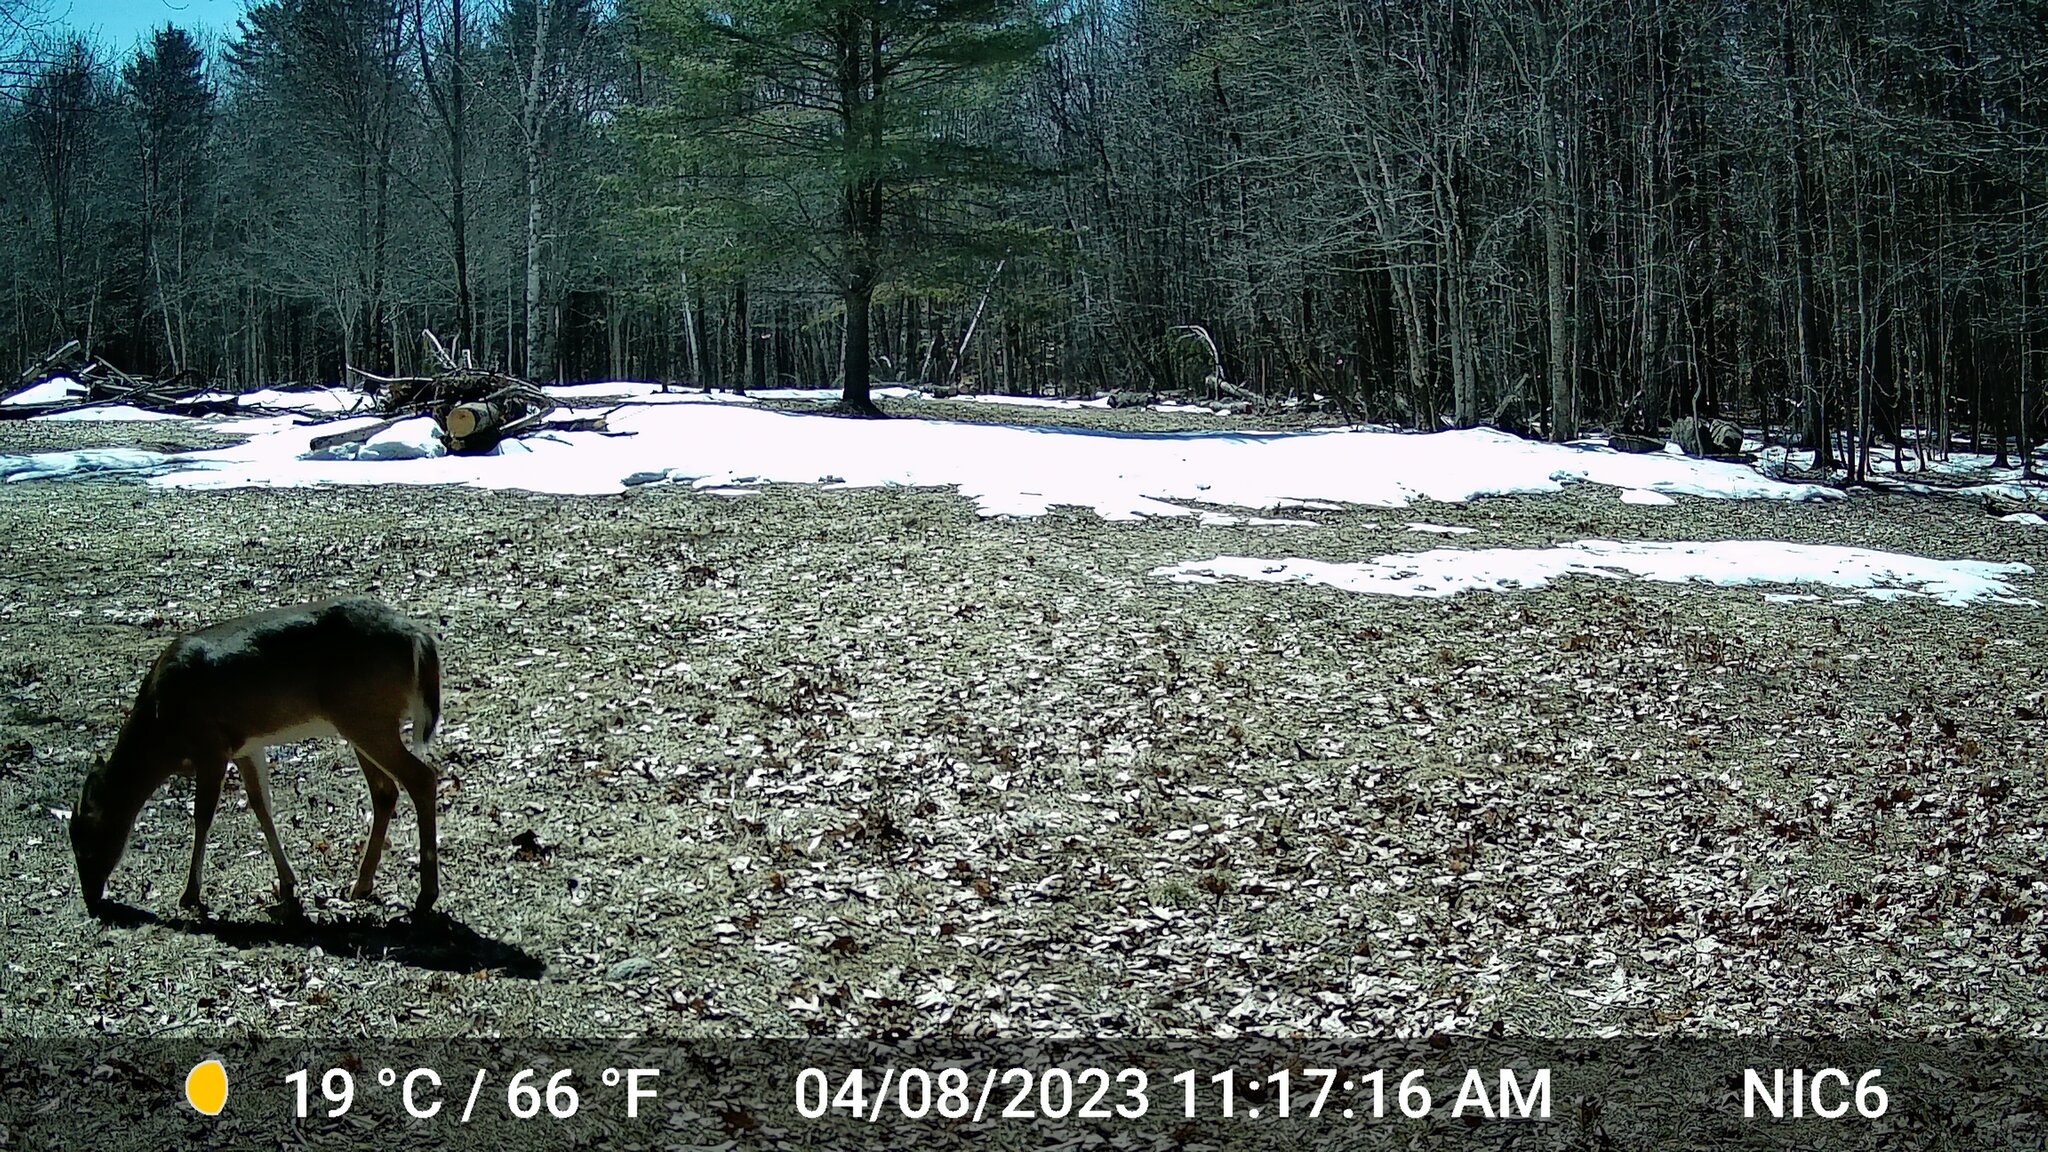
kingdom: Animalia
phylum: Chordata
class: Mammalia
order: Artiodactyla
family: Cervidae
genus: Odocoileus
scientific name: Odocoileus virginianus
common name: White-tailed deer
